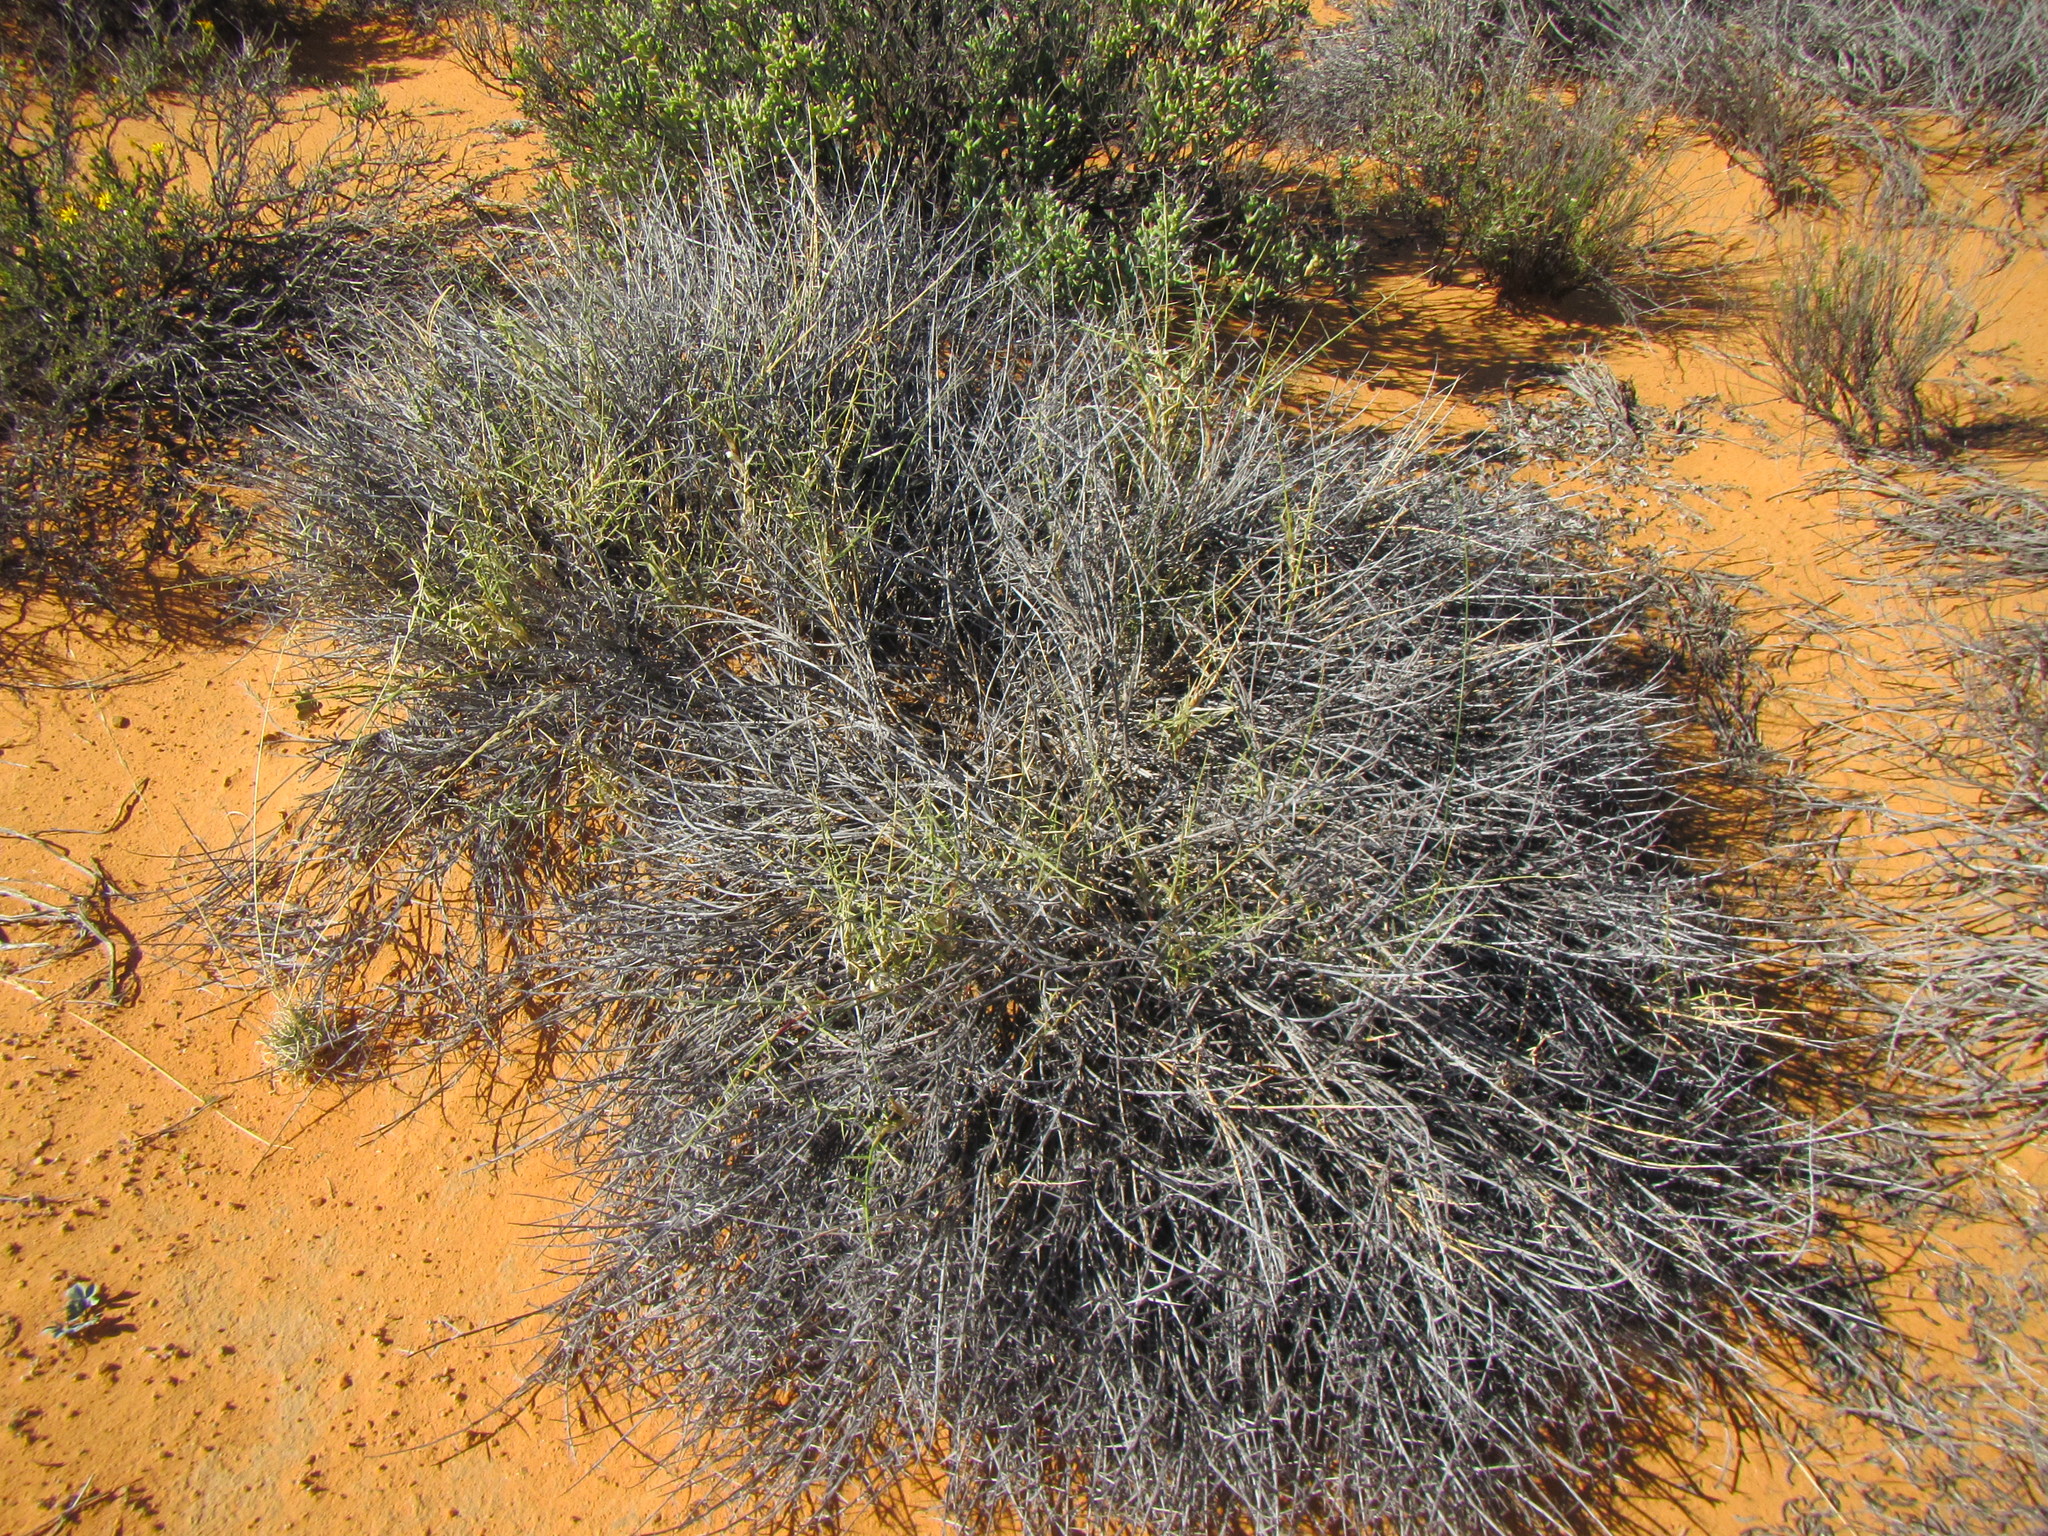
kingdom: Plantae
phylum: Tracheophyta
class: Liliopsida
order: Poales
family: Poaceae
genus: Cladoraphis
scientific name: Cladoraphis spinosa
